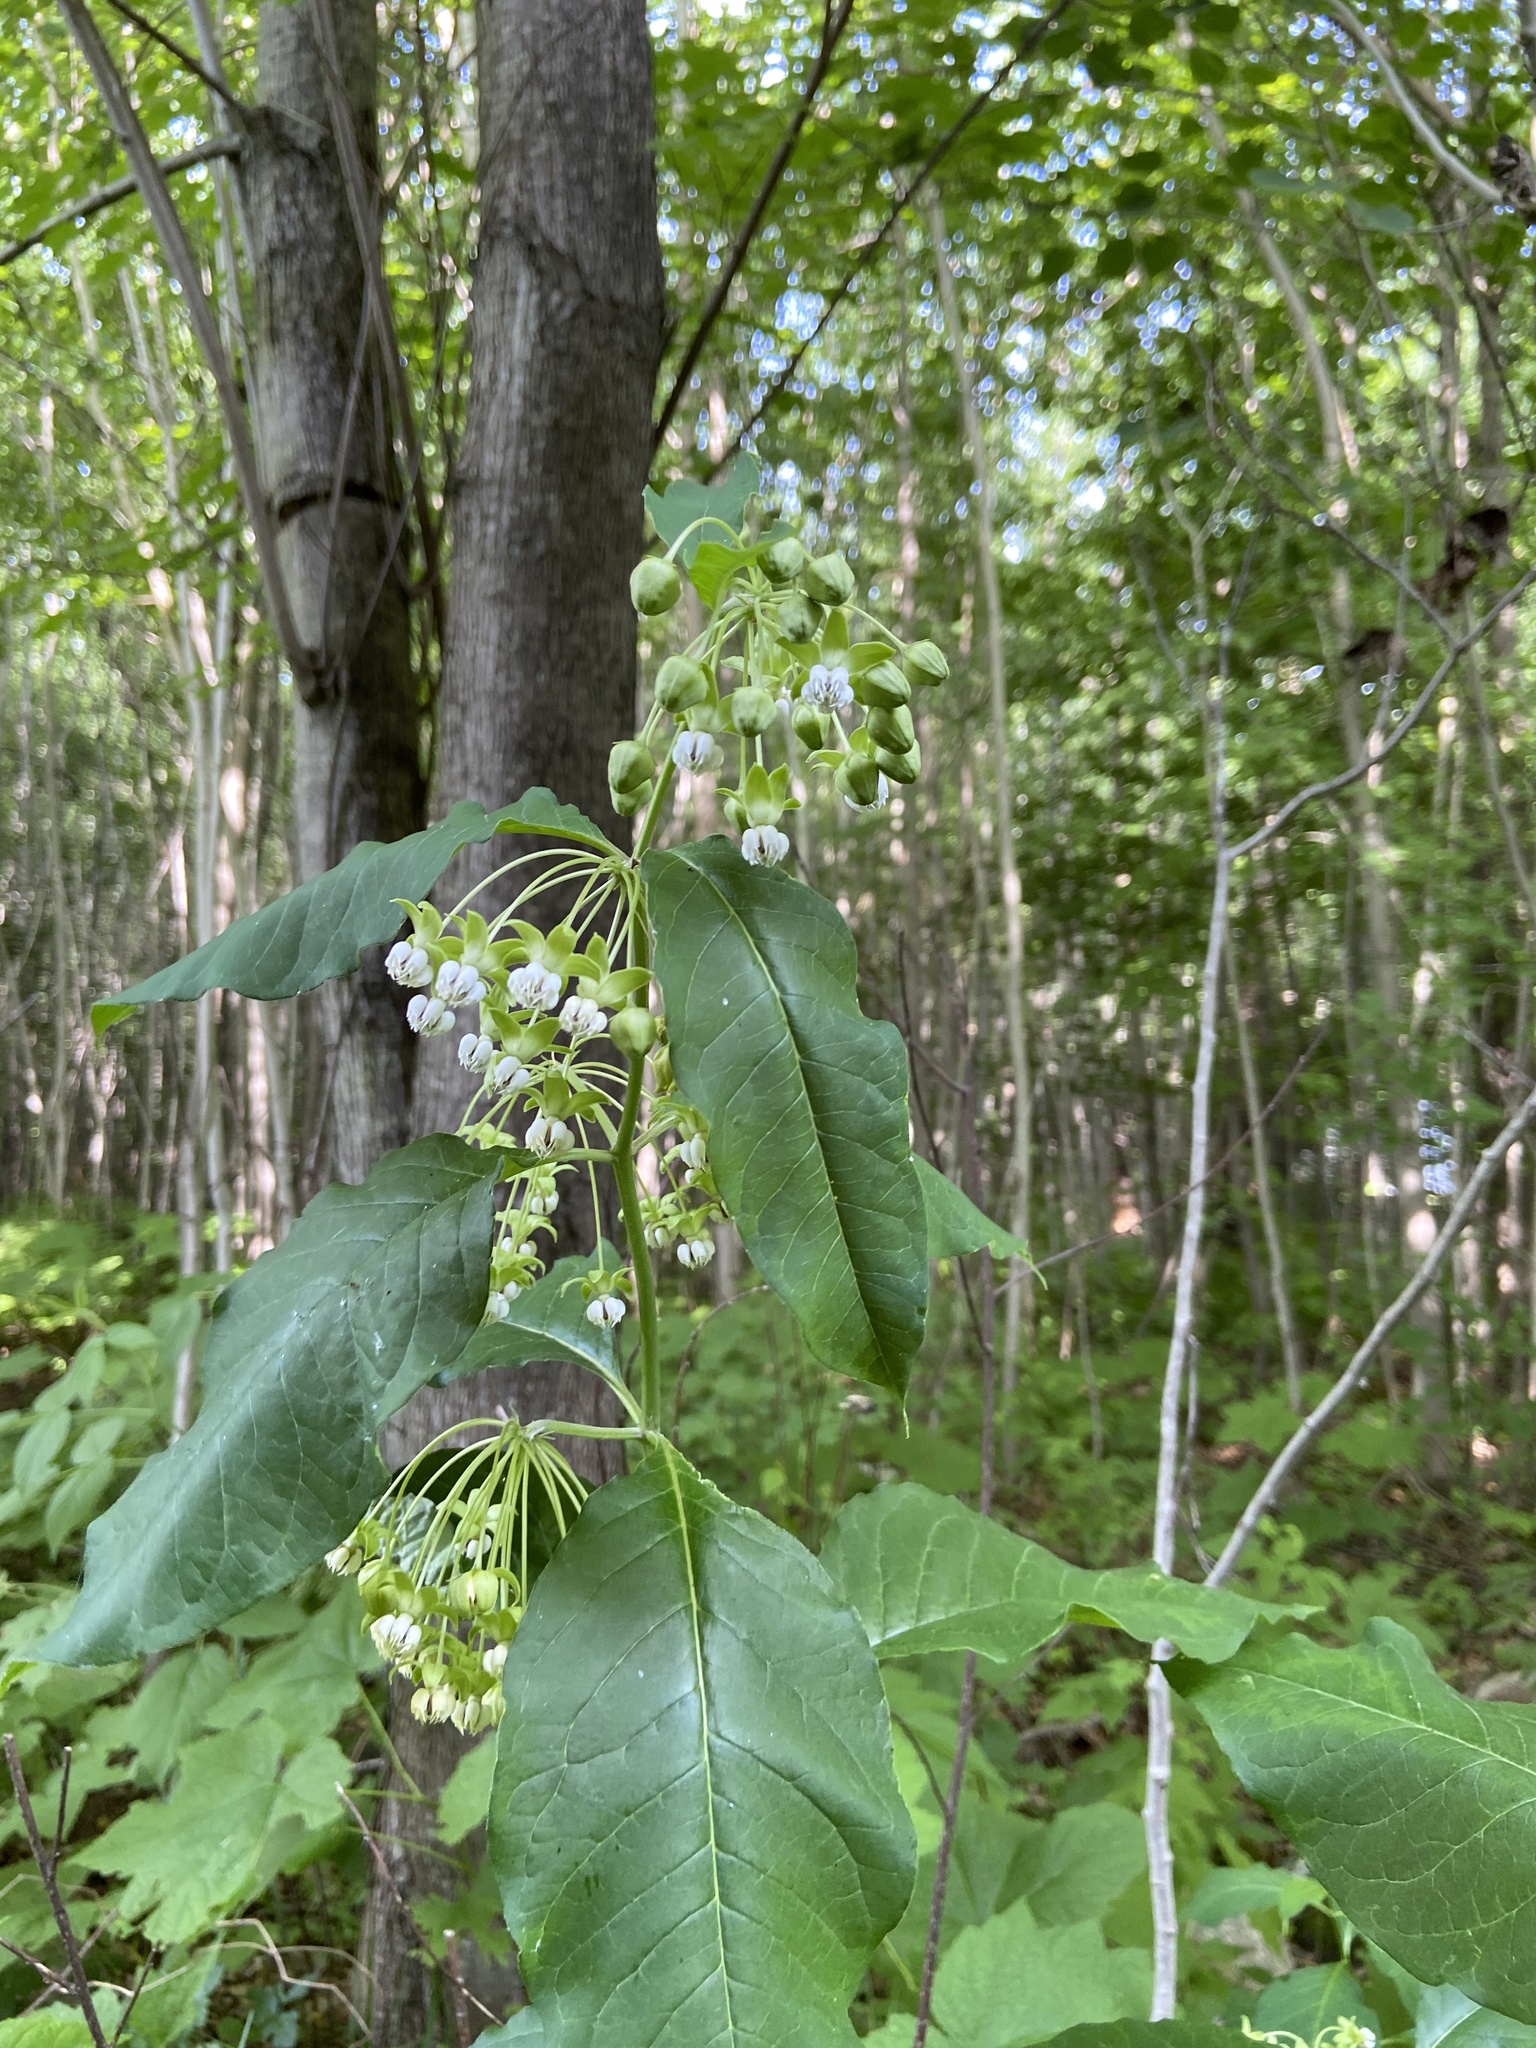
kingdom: Plantae
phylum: Tracheophyta
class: Magnoliopsida
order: Gentianales
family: Apocynaceae
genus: Asclepias
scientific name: Asclepias exaltata
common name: Poke milkweed
